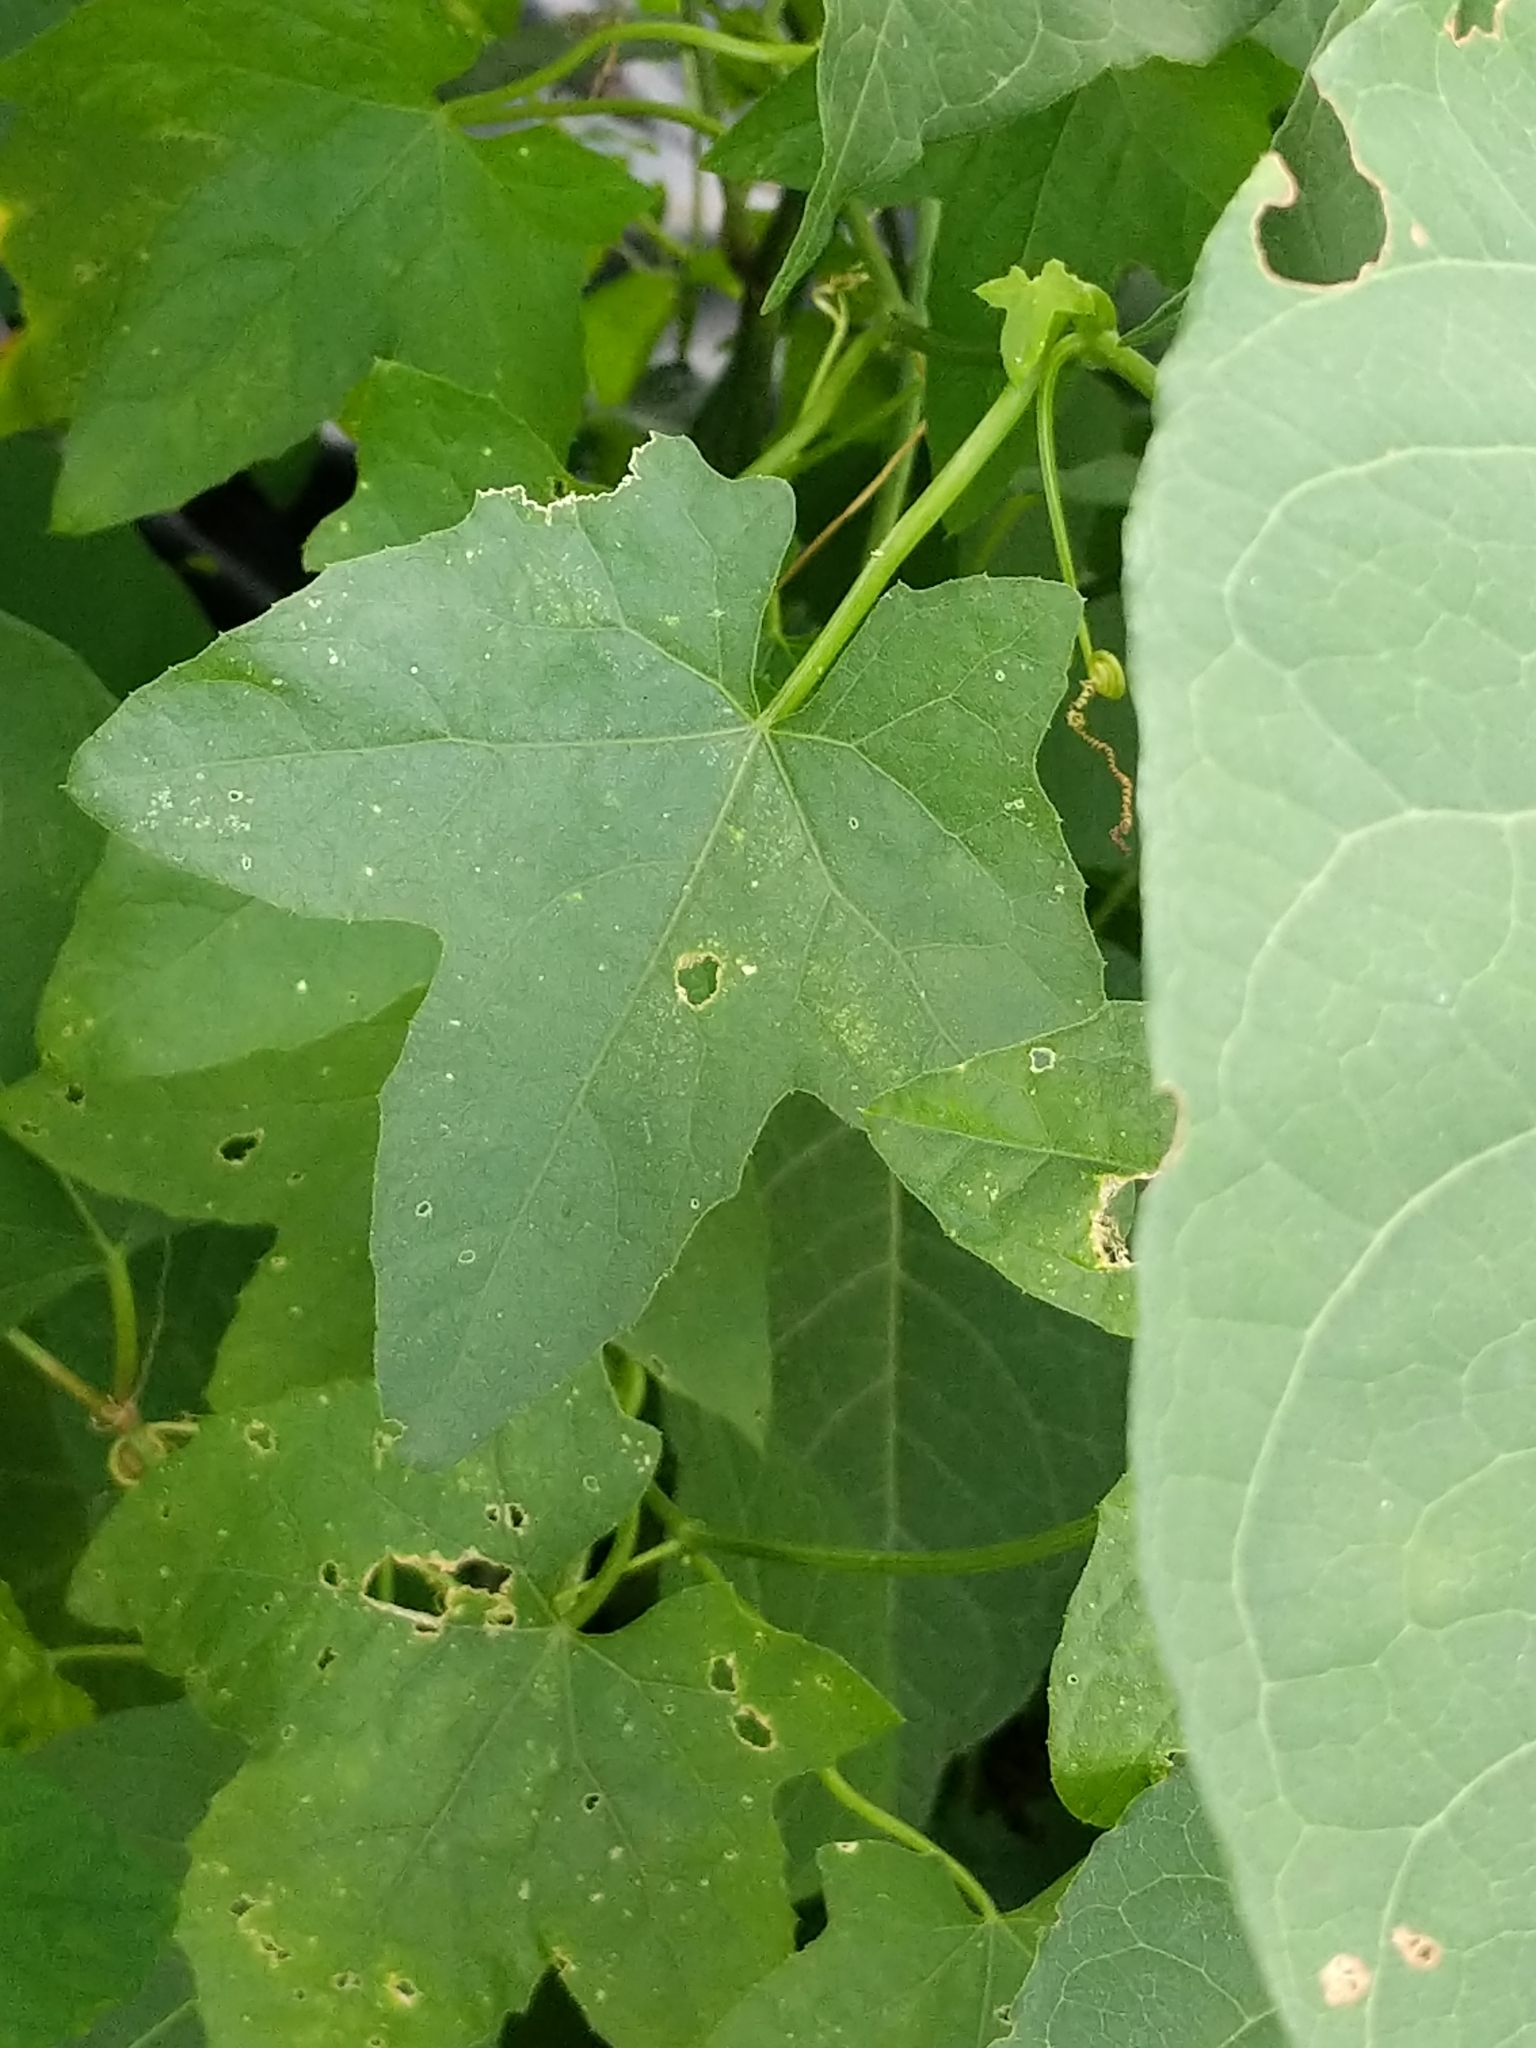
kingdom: Plantae
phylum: Tracheophyta
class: Magnoliopsida
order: Cucurbitales
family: Cucurbitaceae
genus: Echinocystis
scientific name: Echinocystis lobata
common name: Wild cucumber
